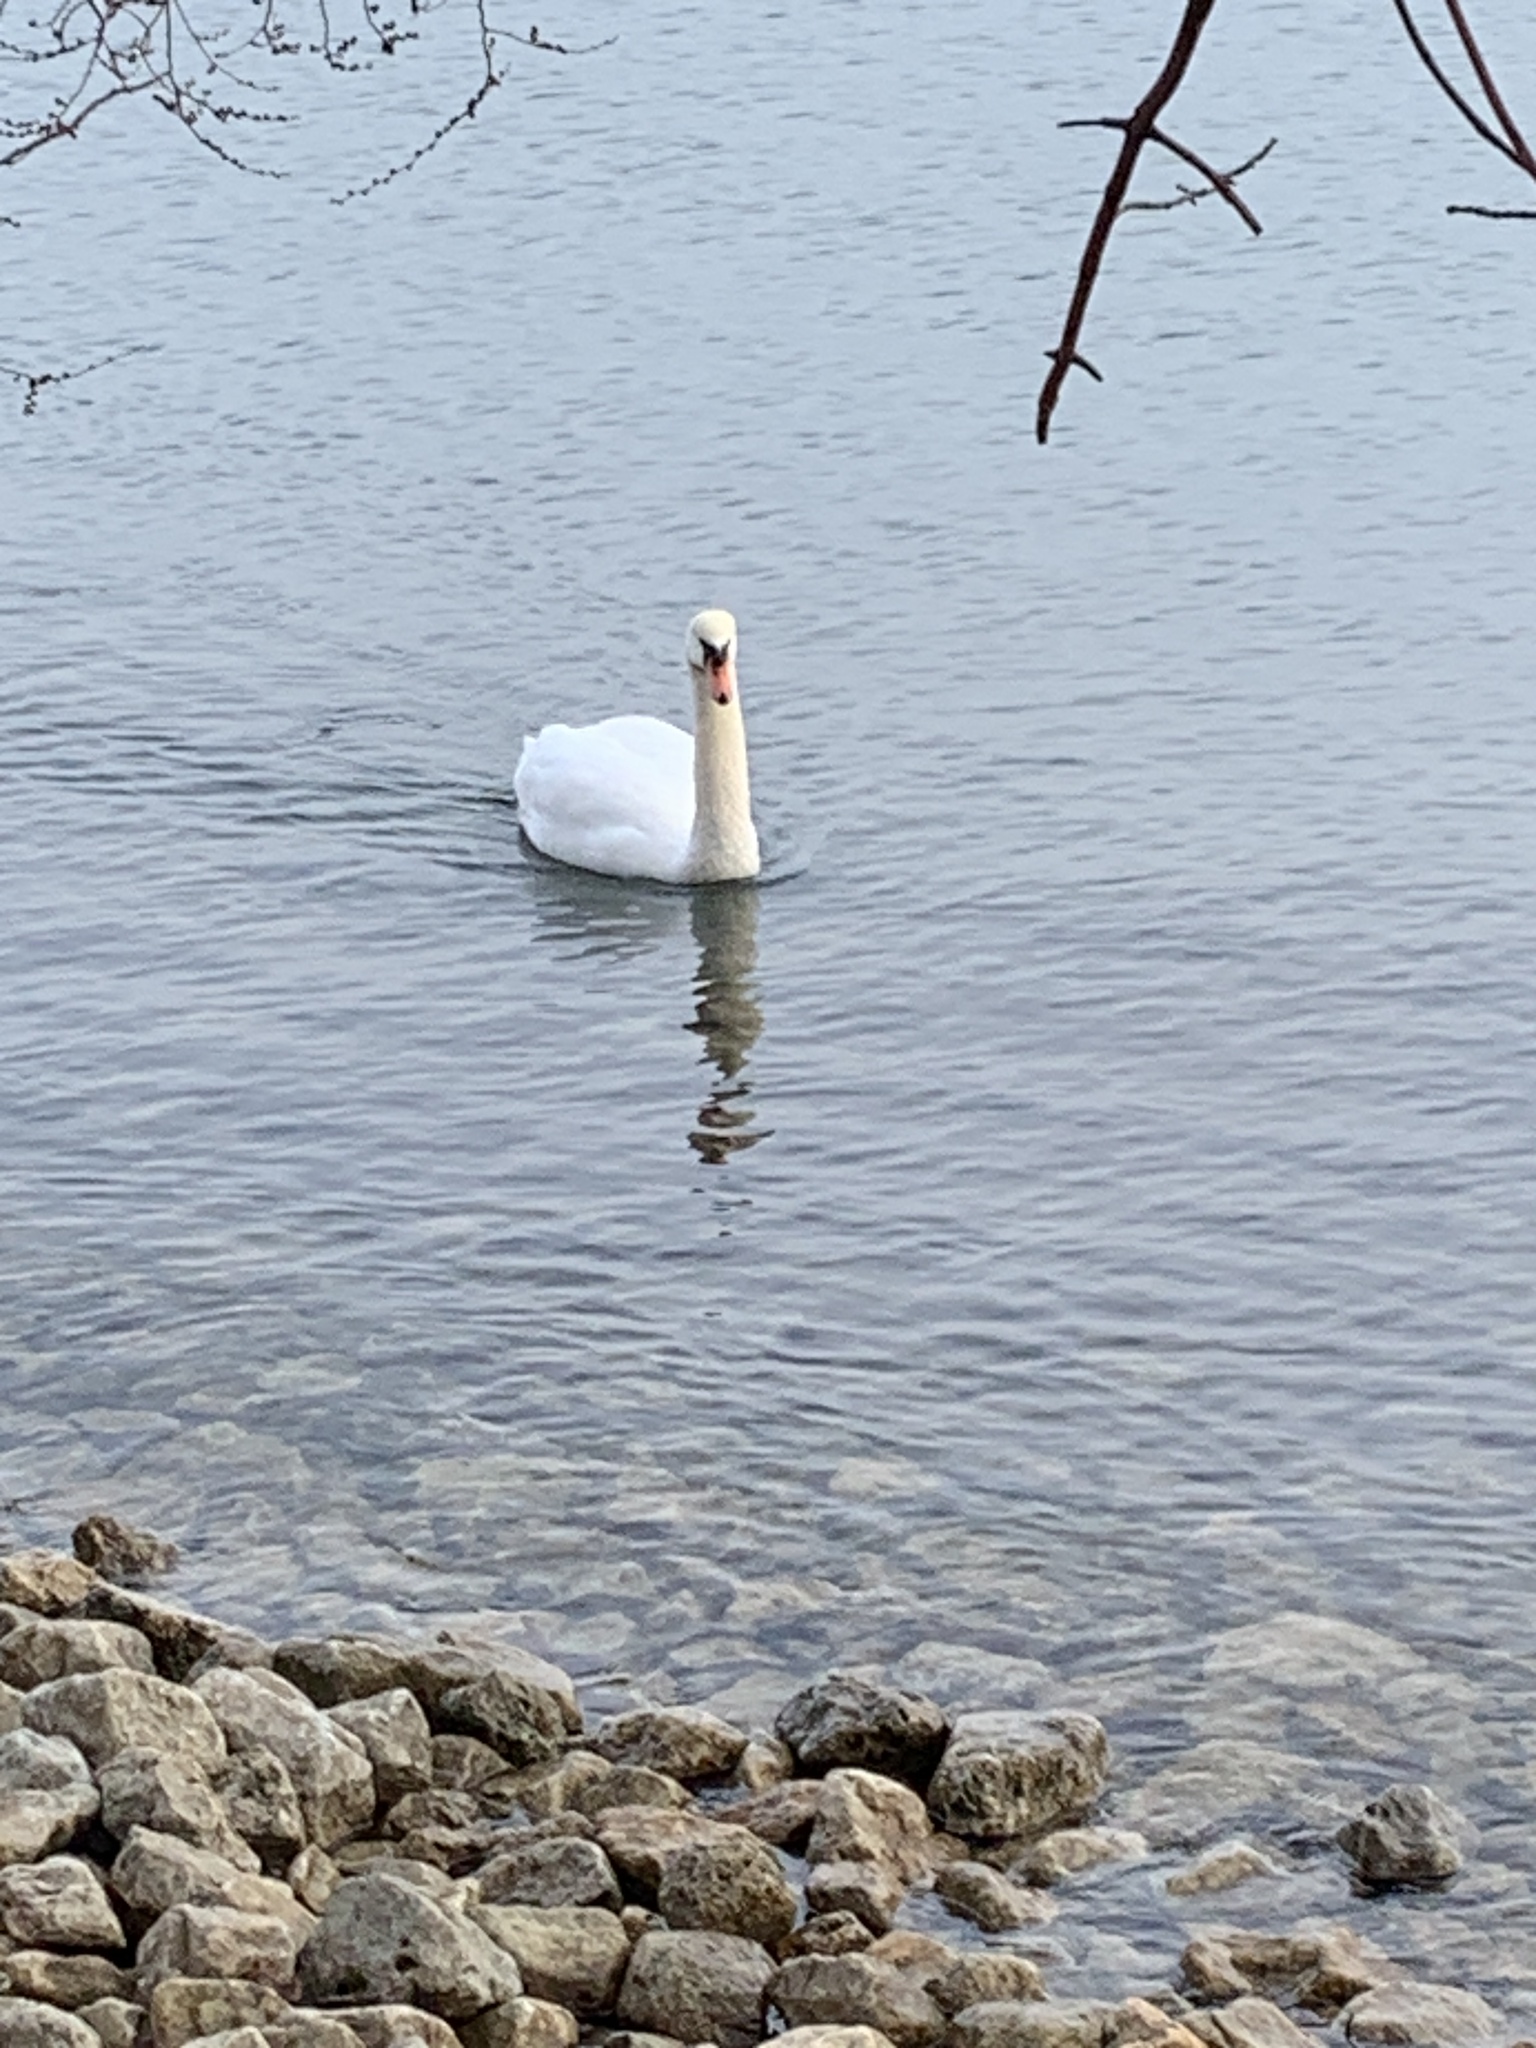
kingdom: Animalia
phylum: Chordata
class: Aves
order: Anseriformes
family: Anatidae
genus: Cygnus
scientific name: Cygnus olor
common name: Mute swan
